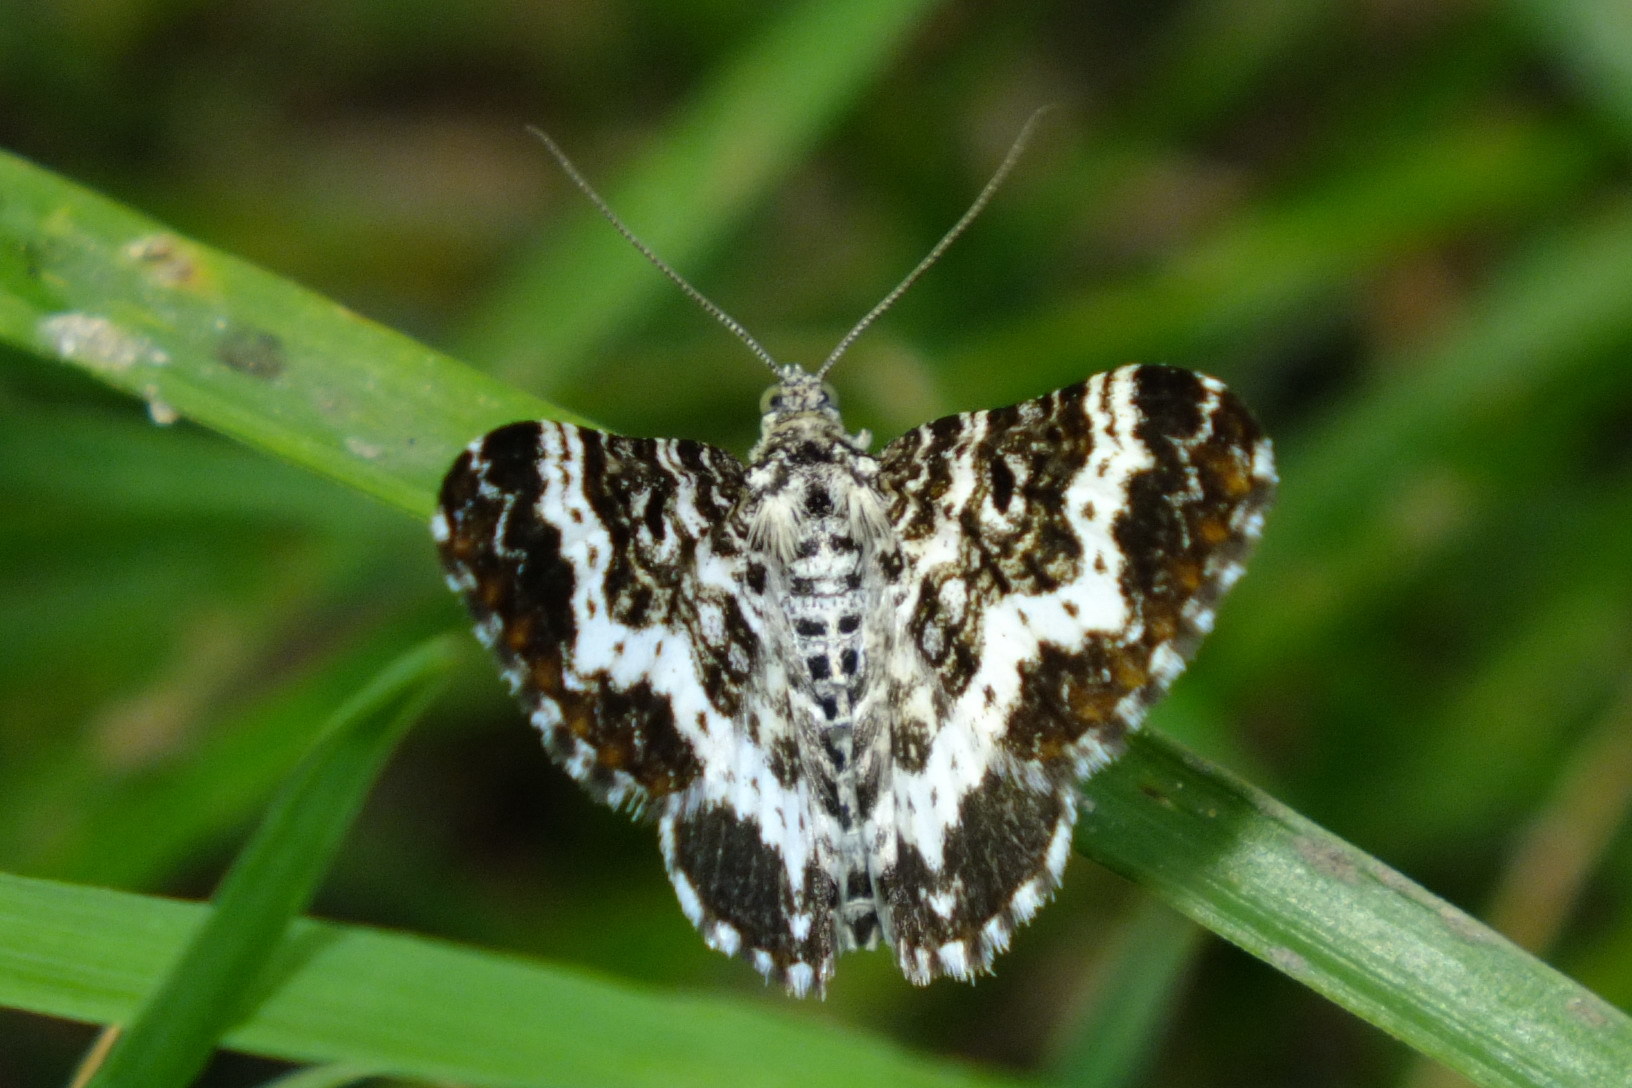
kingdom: Animalia
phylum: Arthropoda
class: Insecta
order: Lepidoptera
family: Geometridae
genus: Epirrhoe
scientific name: Epirrhoe tristata
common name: Small argent & sable
